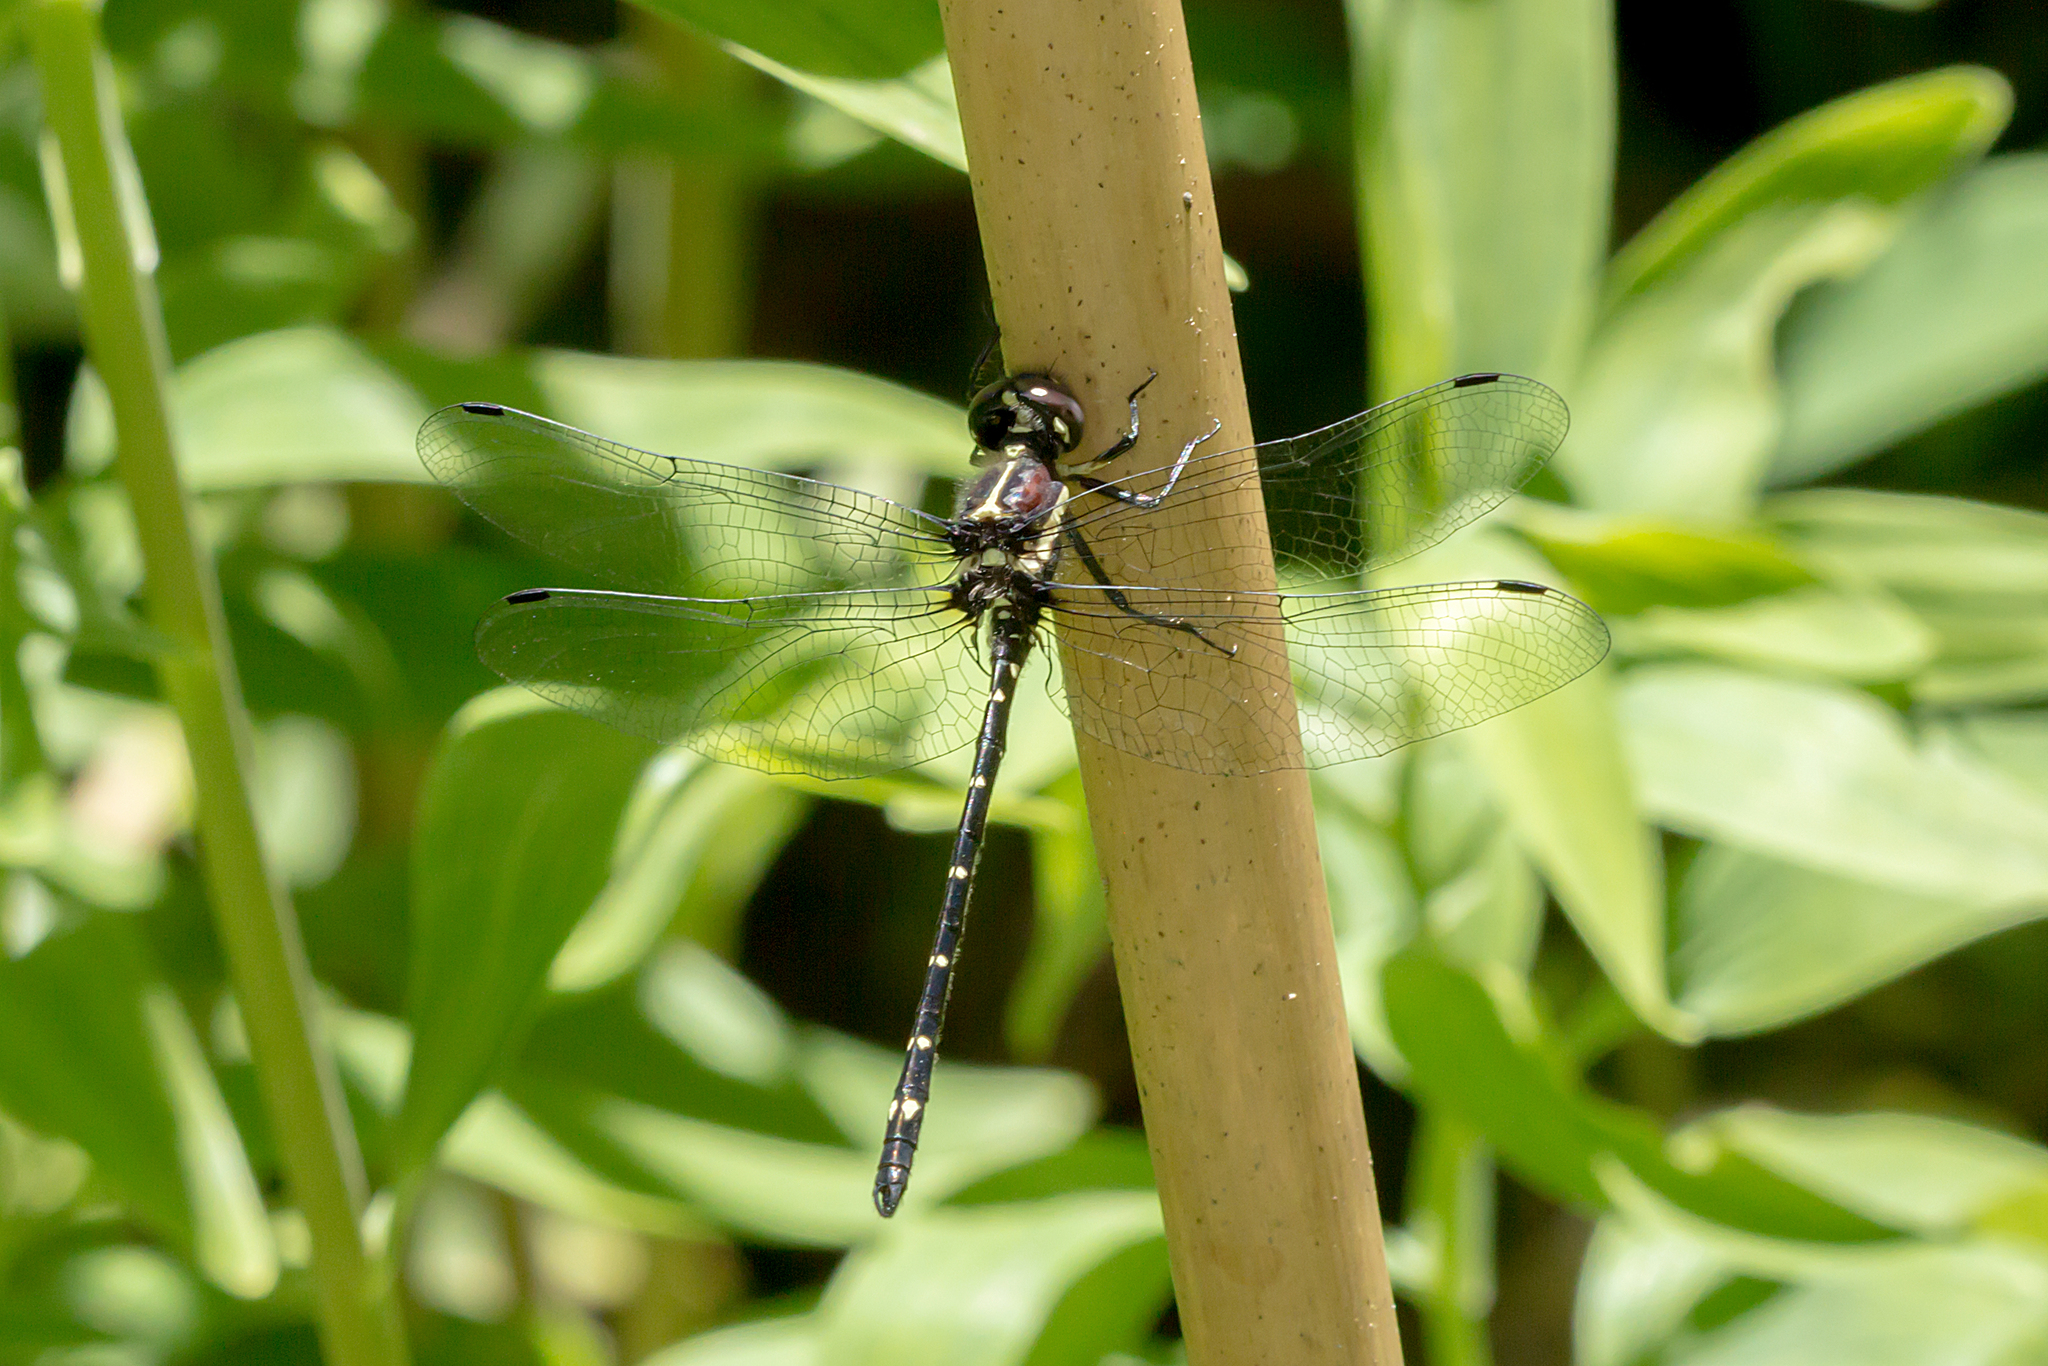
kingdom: Animalia
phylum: Arthropoda
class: Insecta
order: Odonata
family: Synthemistidae
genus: Eusynthemis
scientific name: Eusynthemis guttata
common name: Southern tigertail
